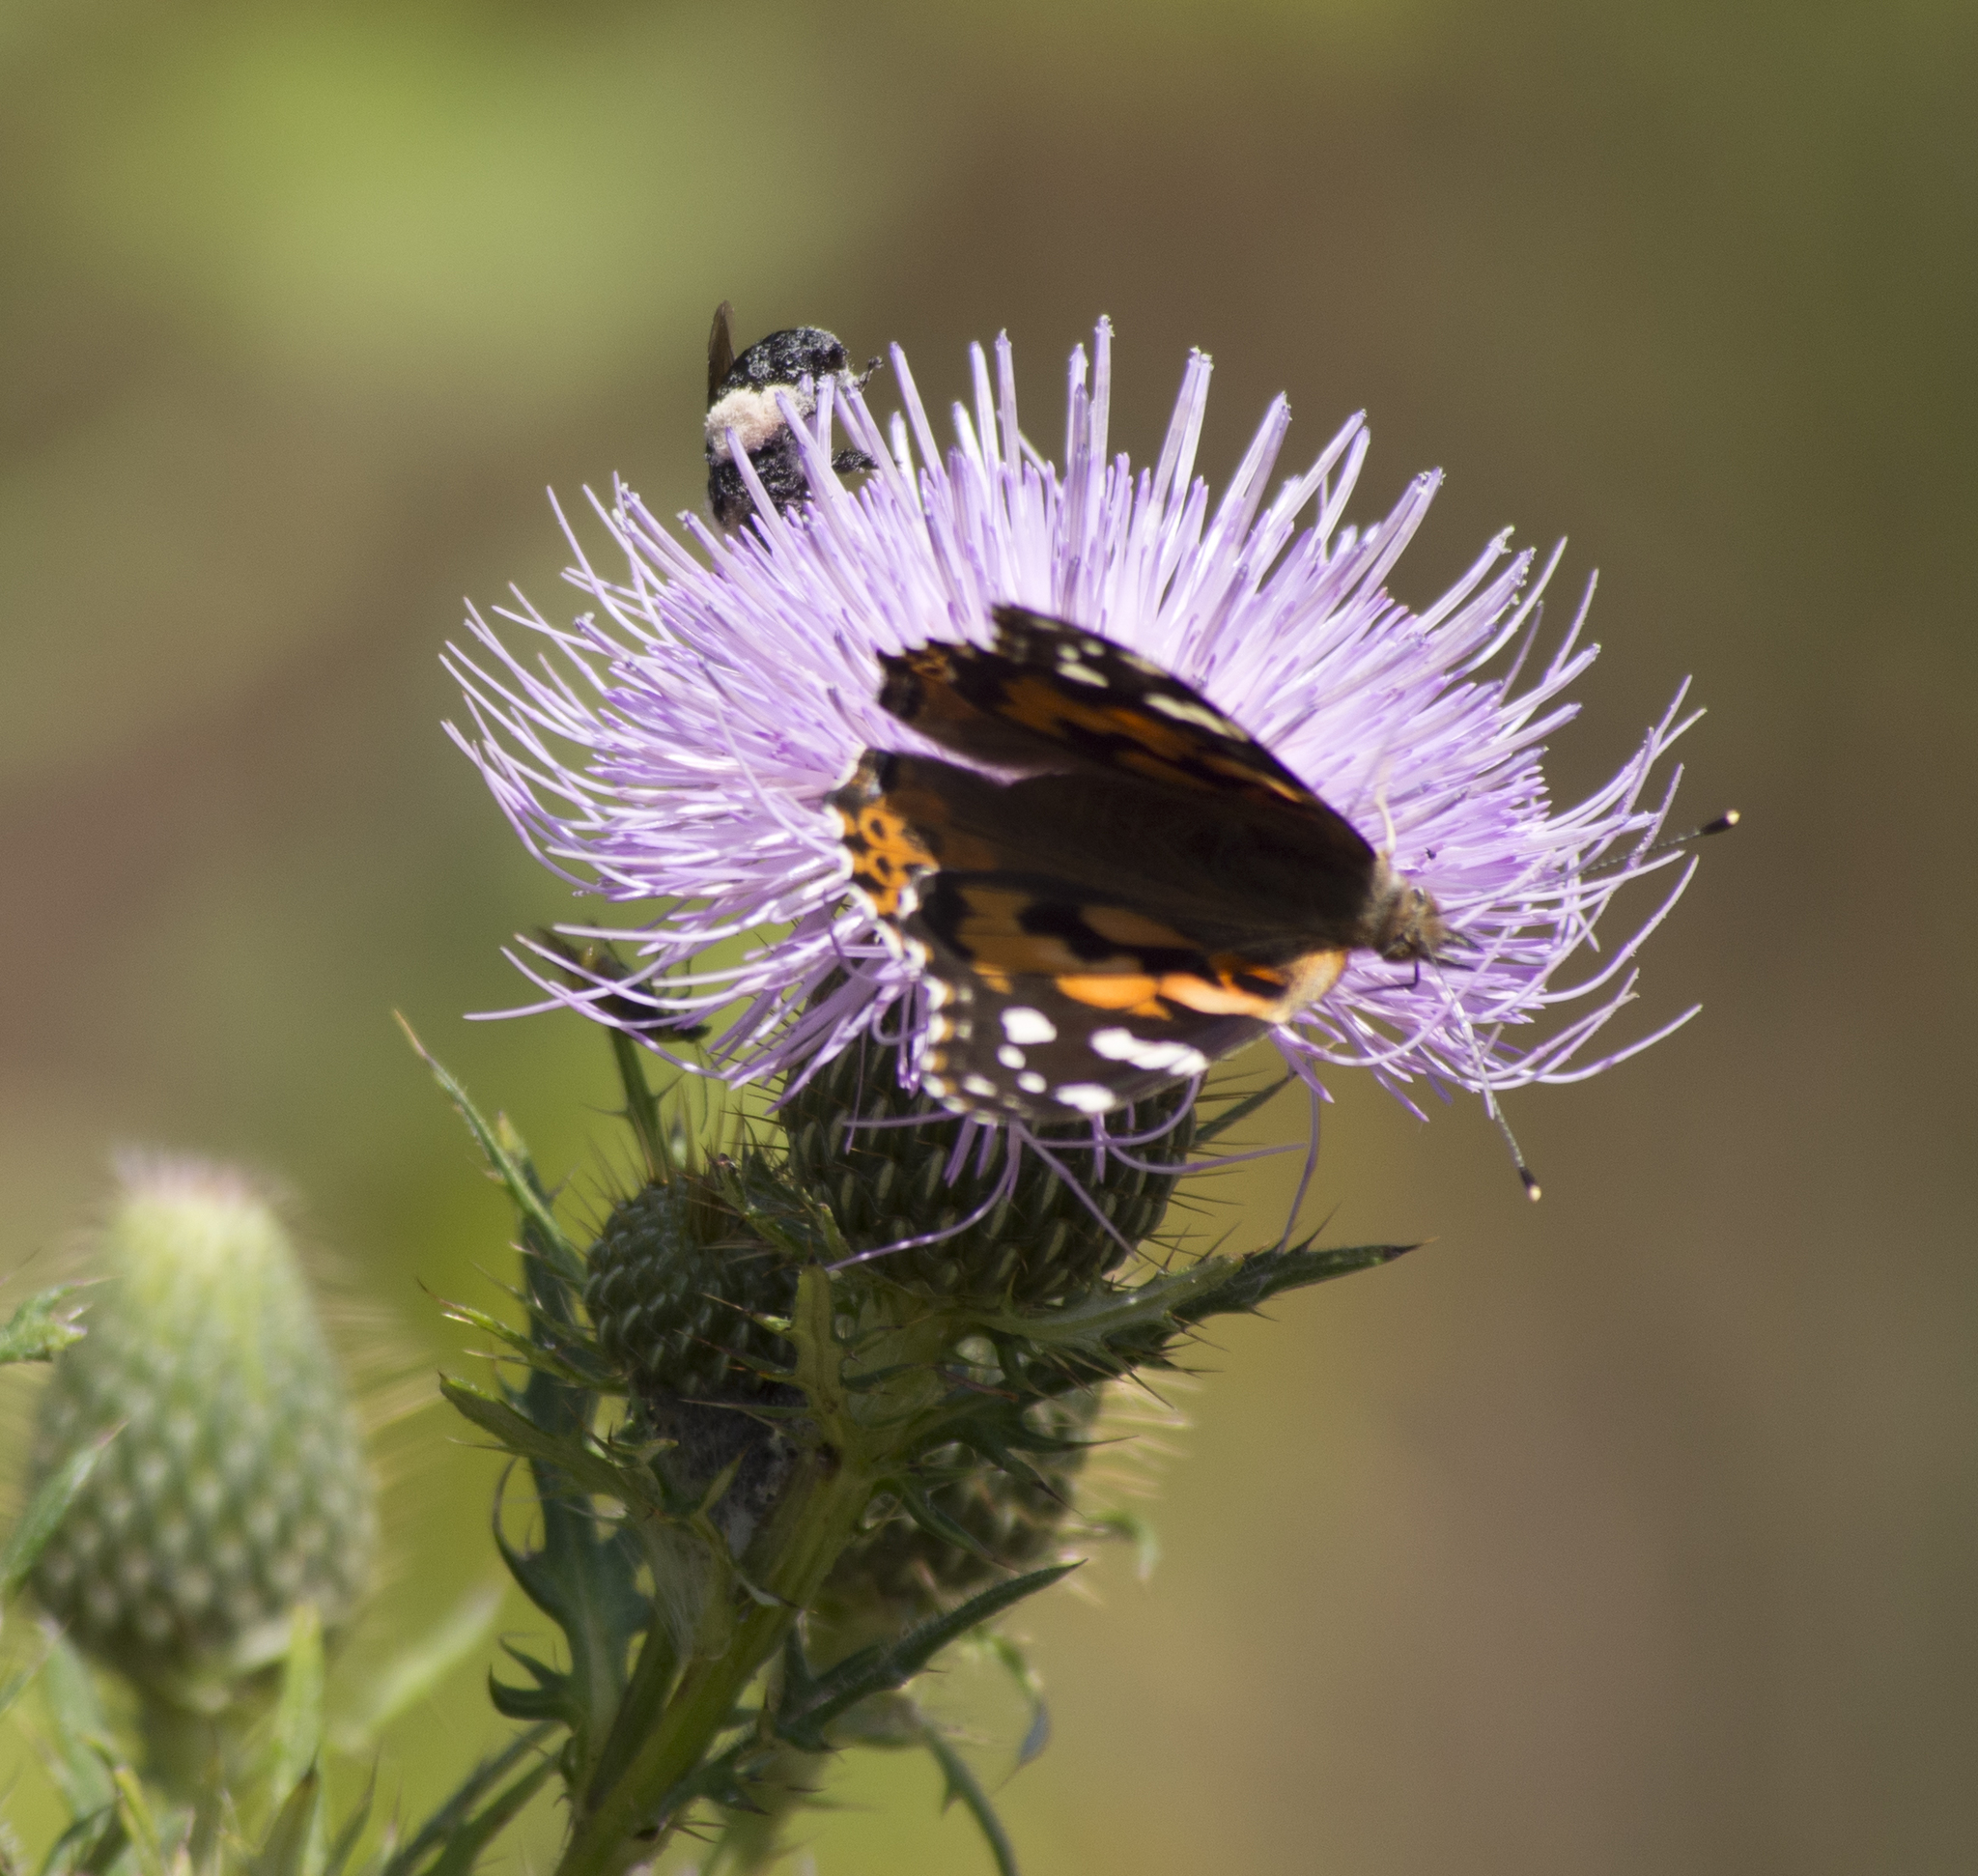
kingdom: Animalia
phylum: Arthropoda
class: Insecta
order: Lepidoptera
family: Nymphalidae
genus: Vanessa
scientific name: Vanessa cardui
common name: Painted lady
